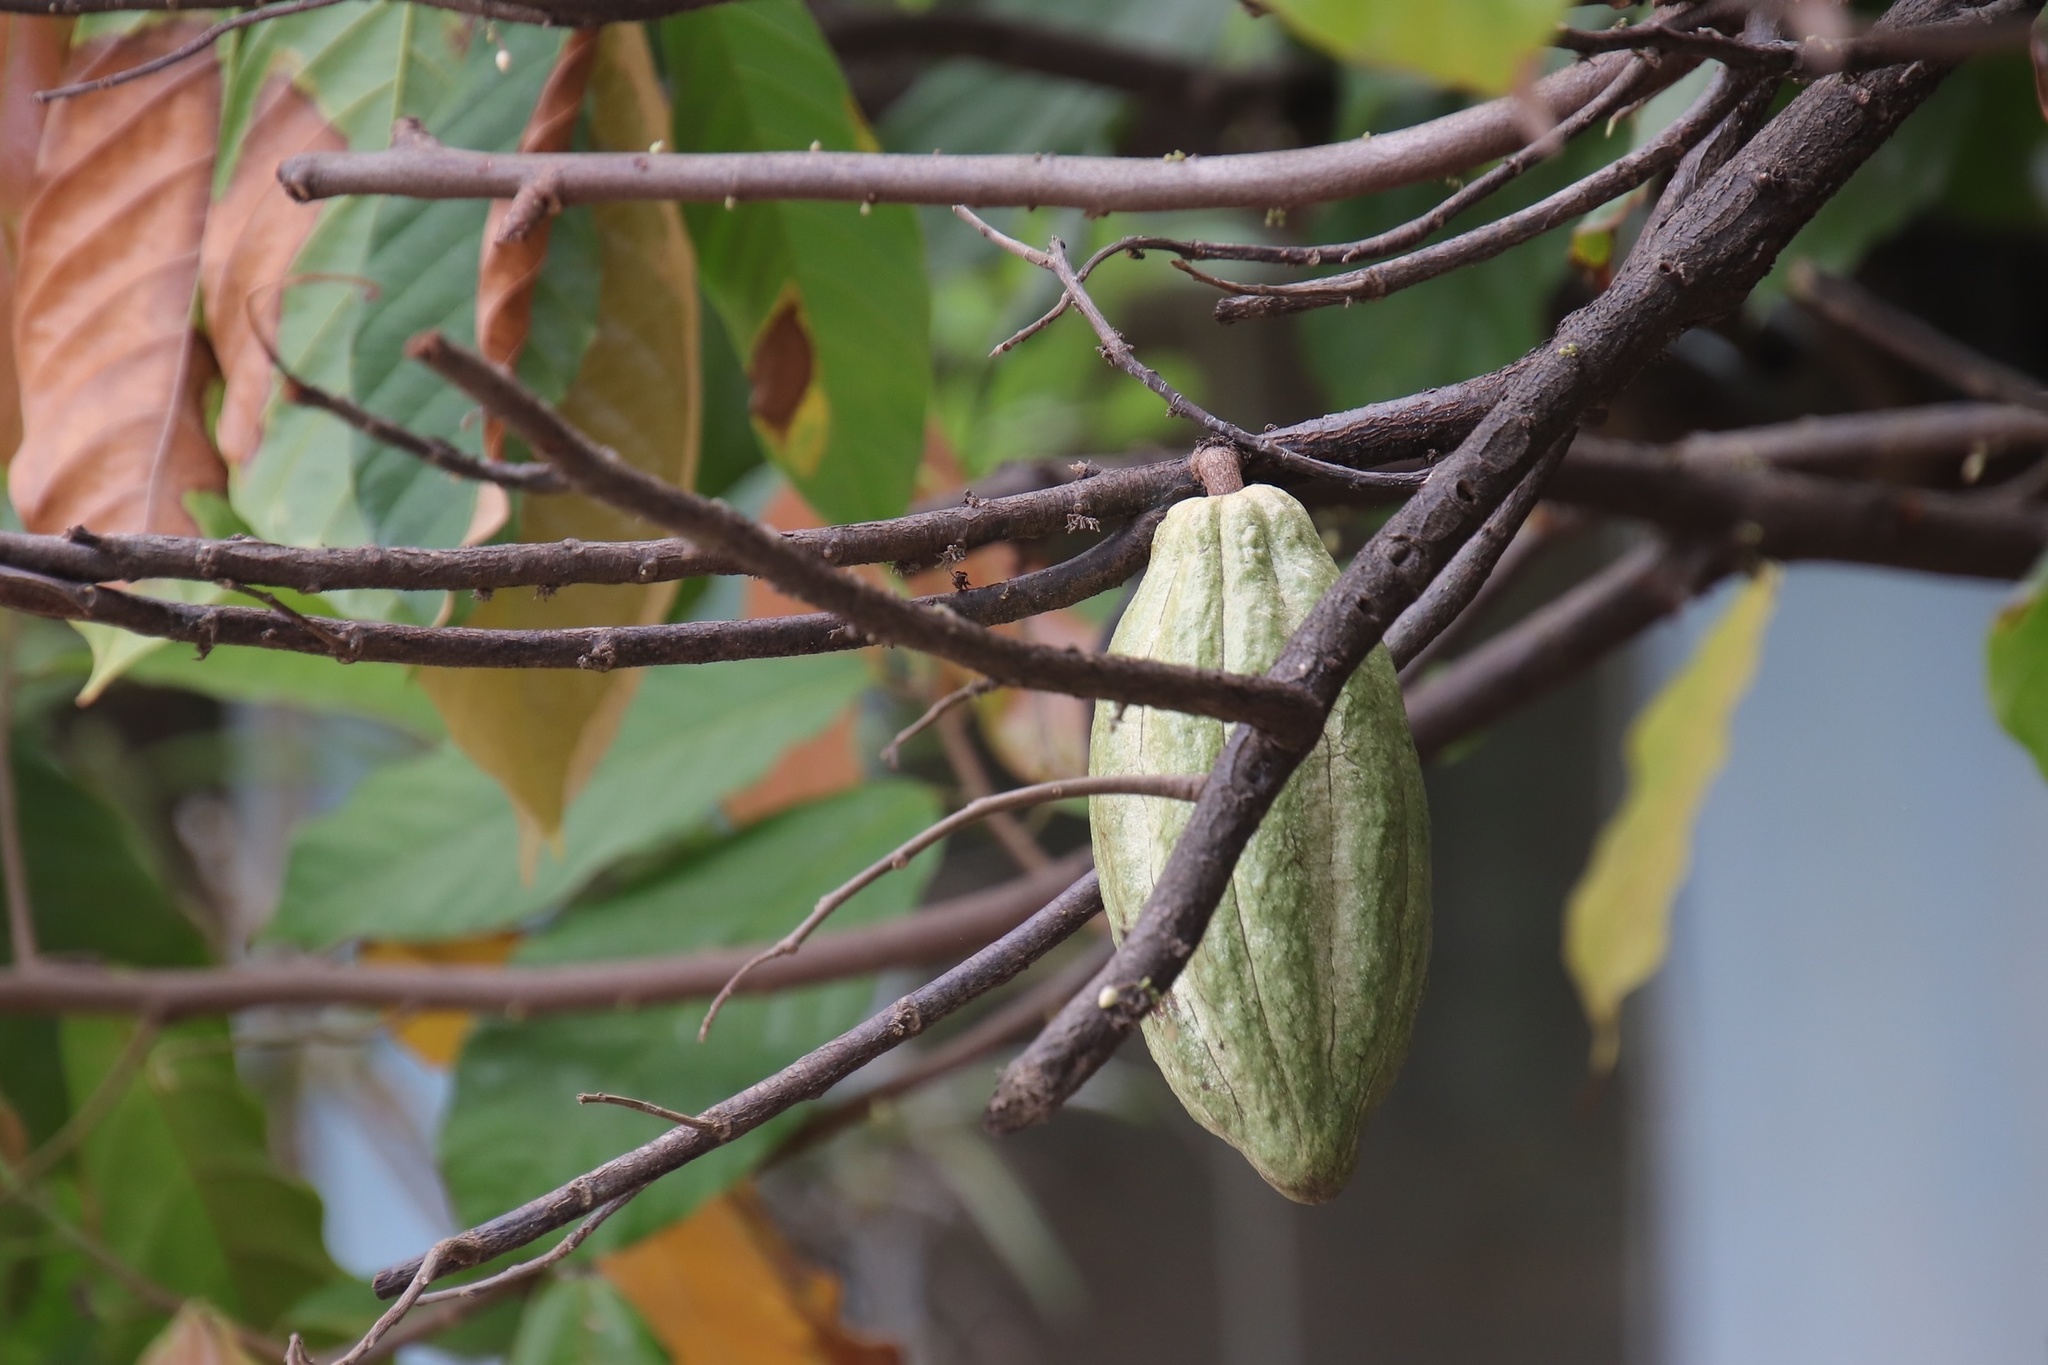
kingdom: Plantae
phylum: Tracheophyta
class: Magnoliopsida
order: Malvales
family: Malvaceae
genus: Theobroma
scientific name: Theobroma cacao
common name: Cocoa
